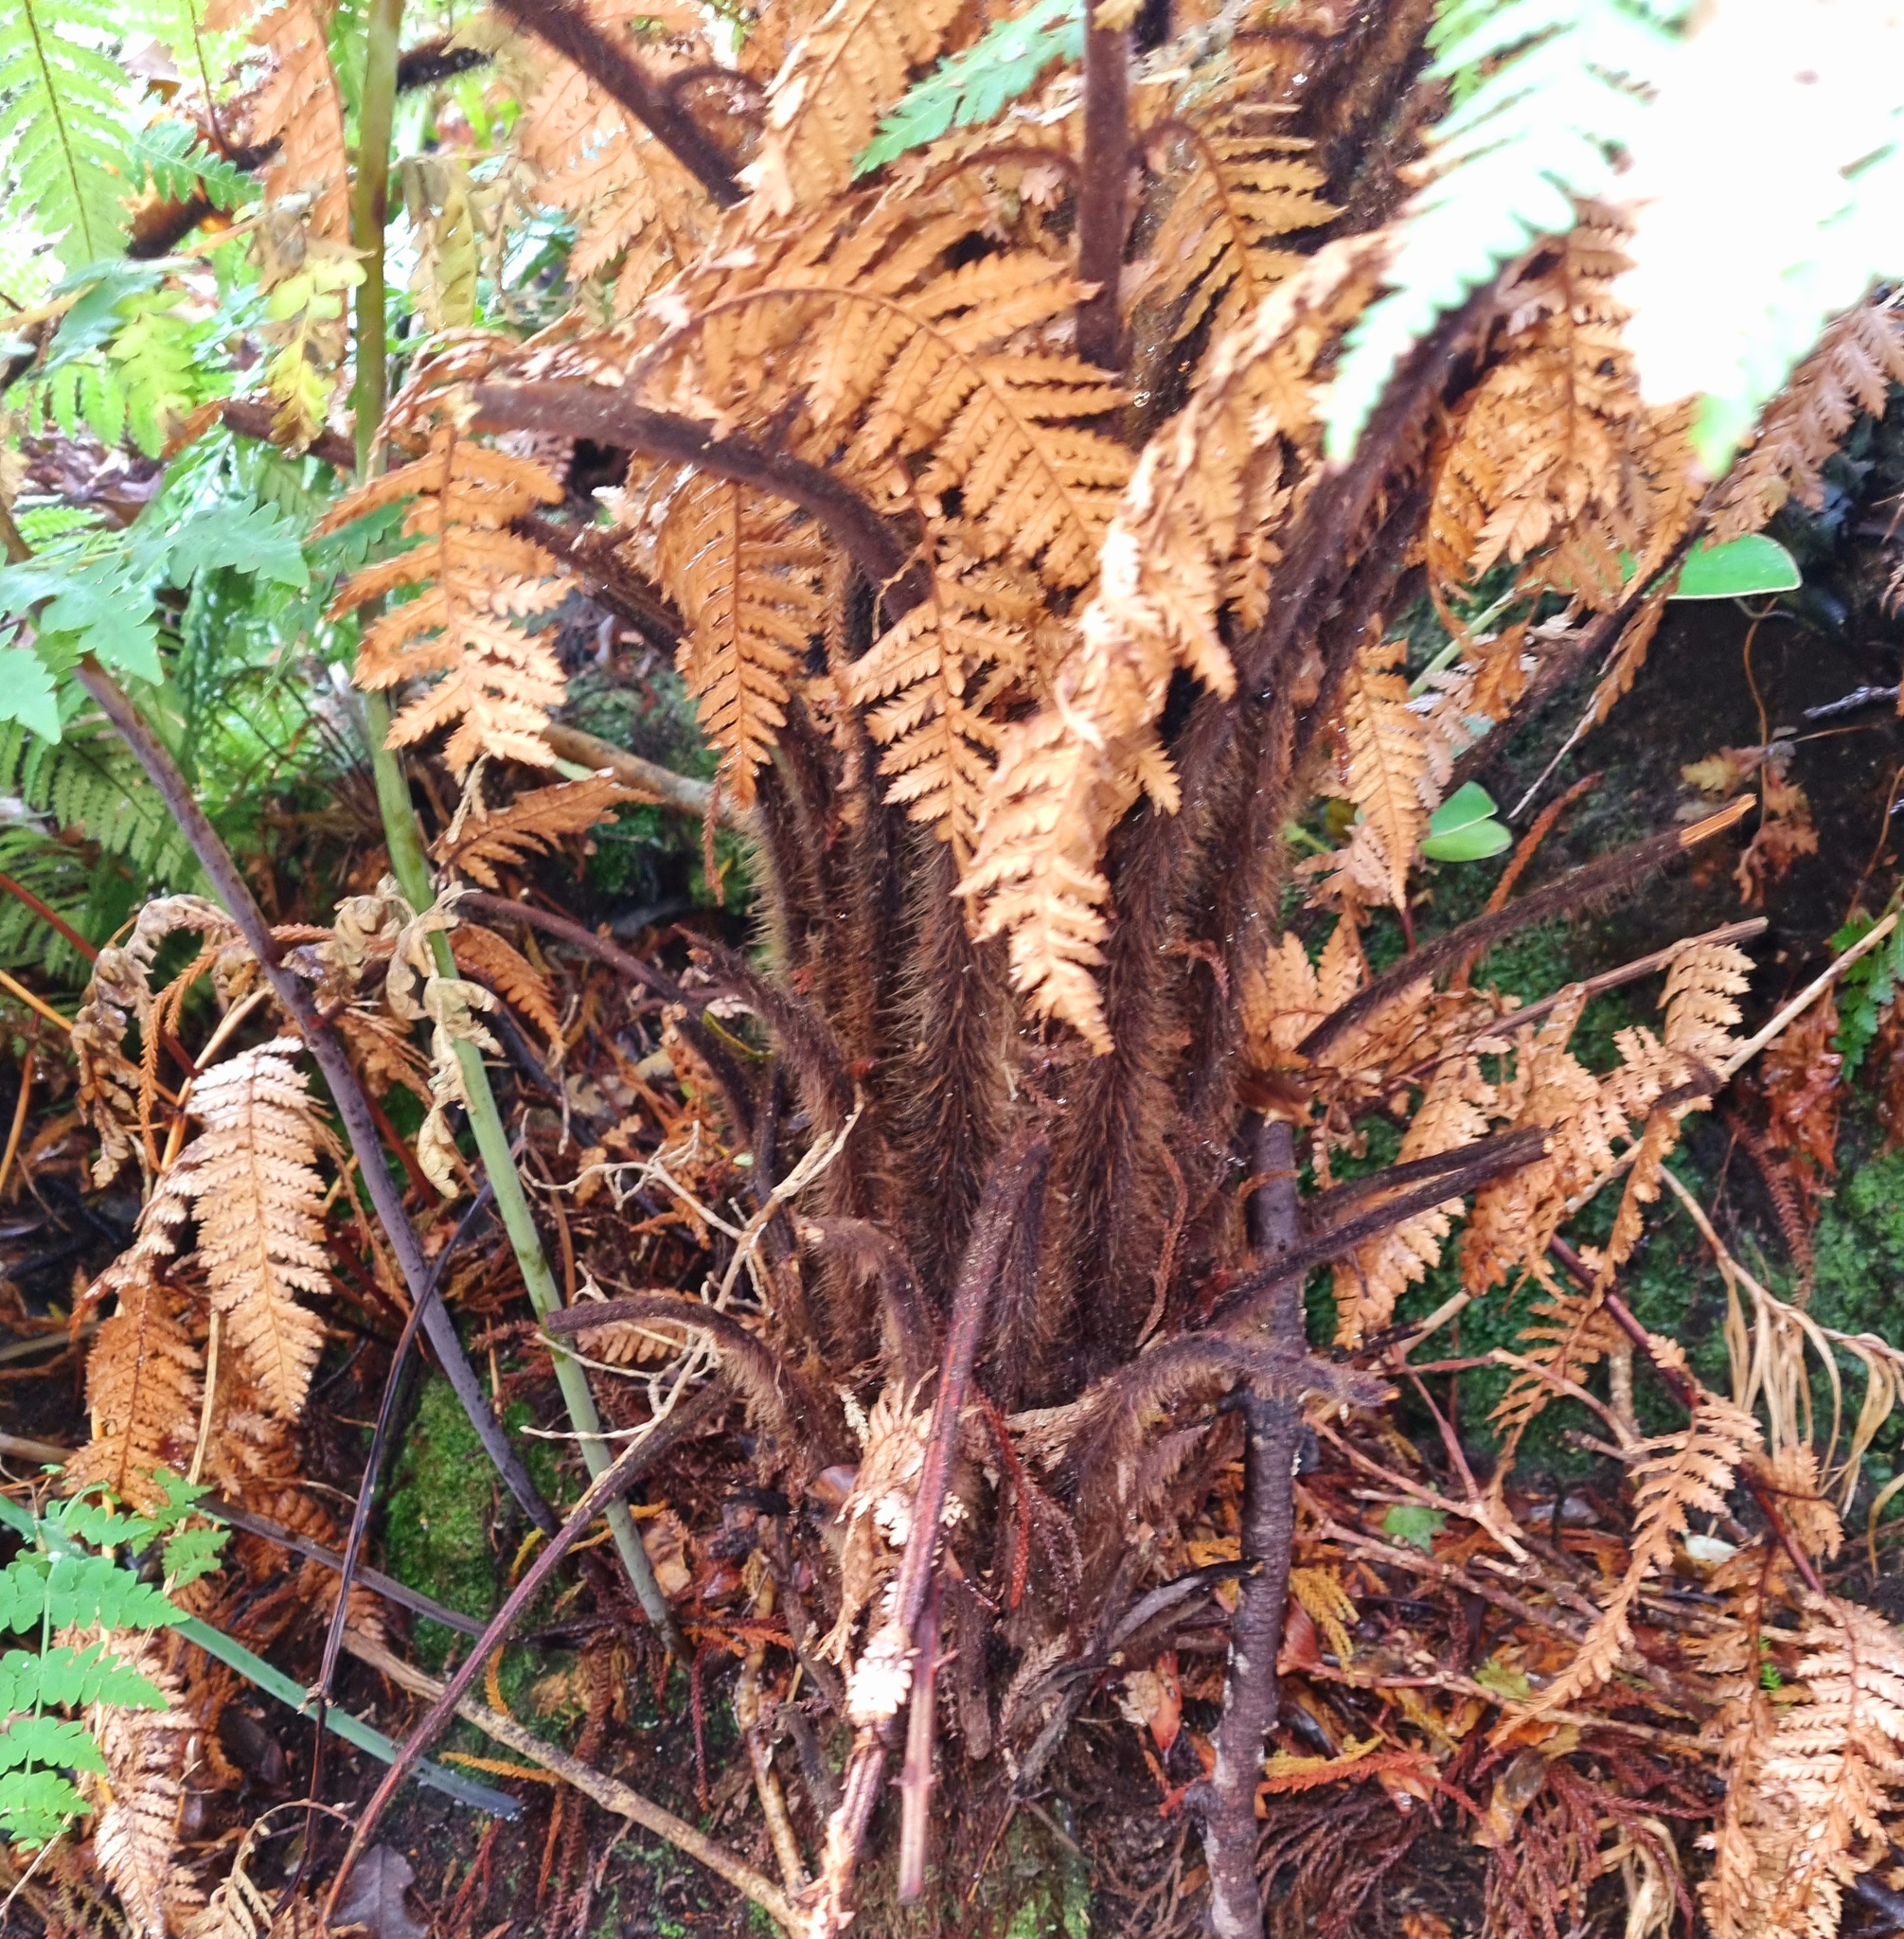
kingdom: Plantae
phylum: Tracheophyta
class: Polypodiopsida
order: Cyatheales
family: Dicksoniaceae
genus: Dicksonia
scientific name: Dicksonia squarrosa
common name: Hard treefern
